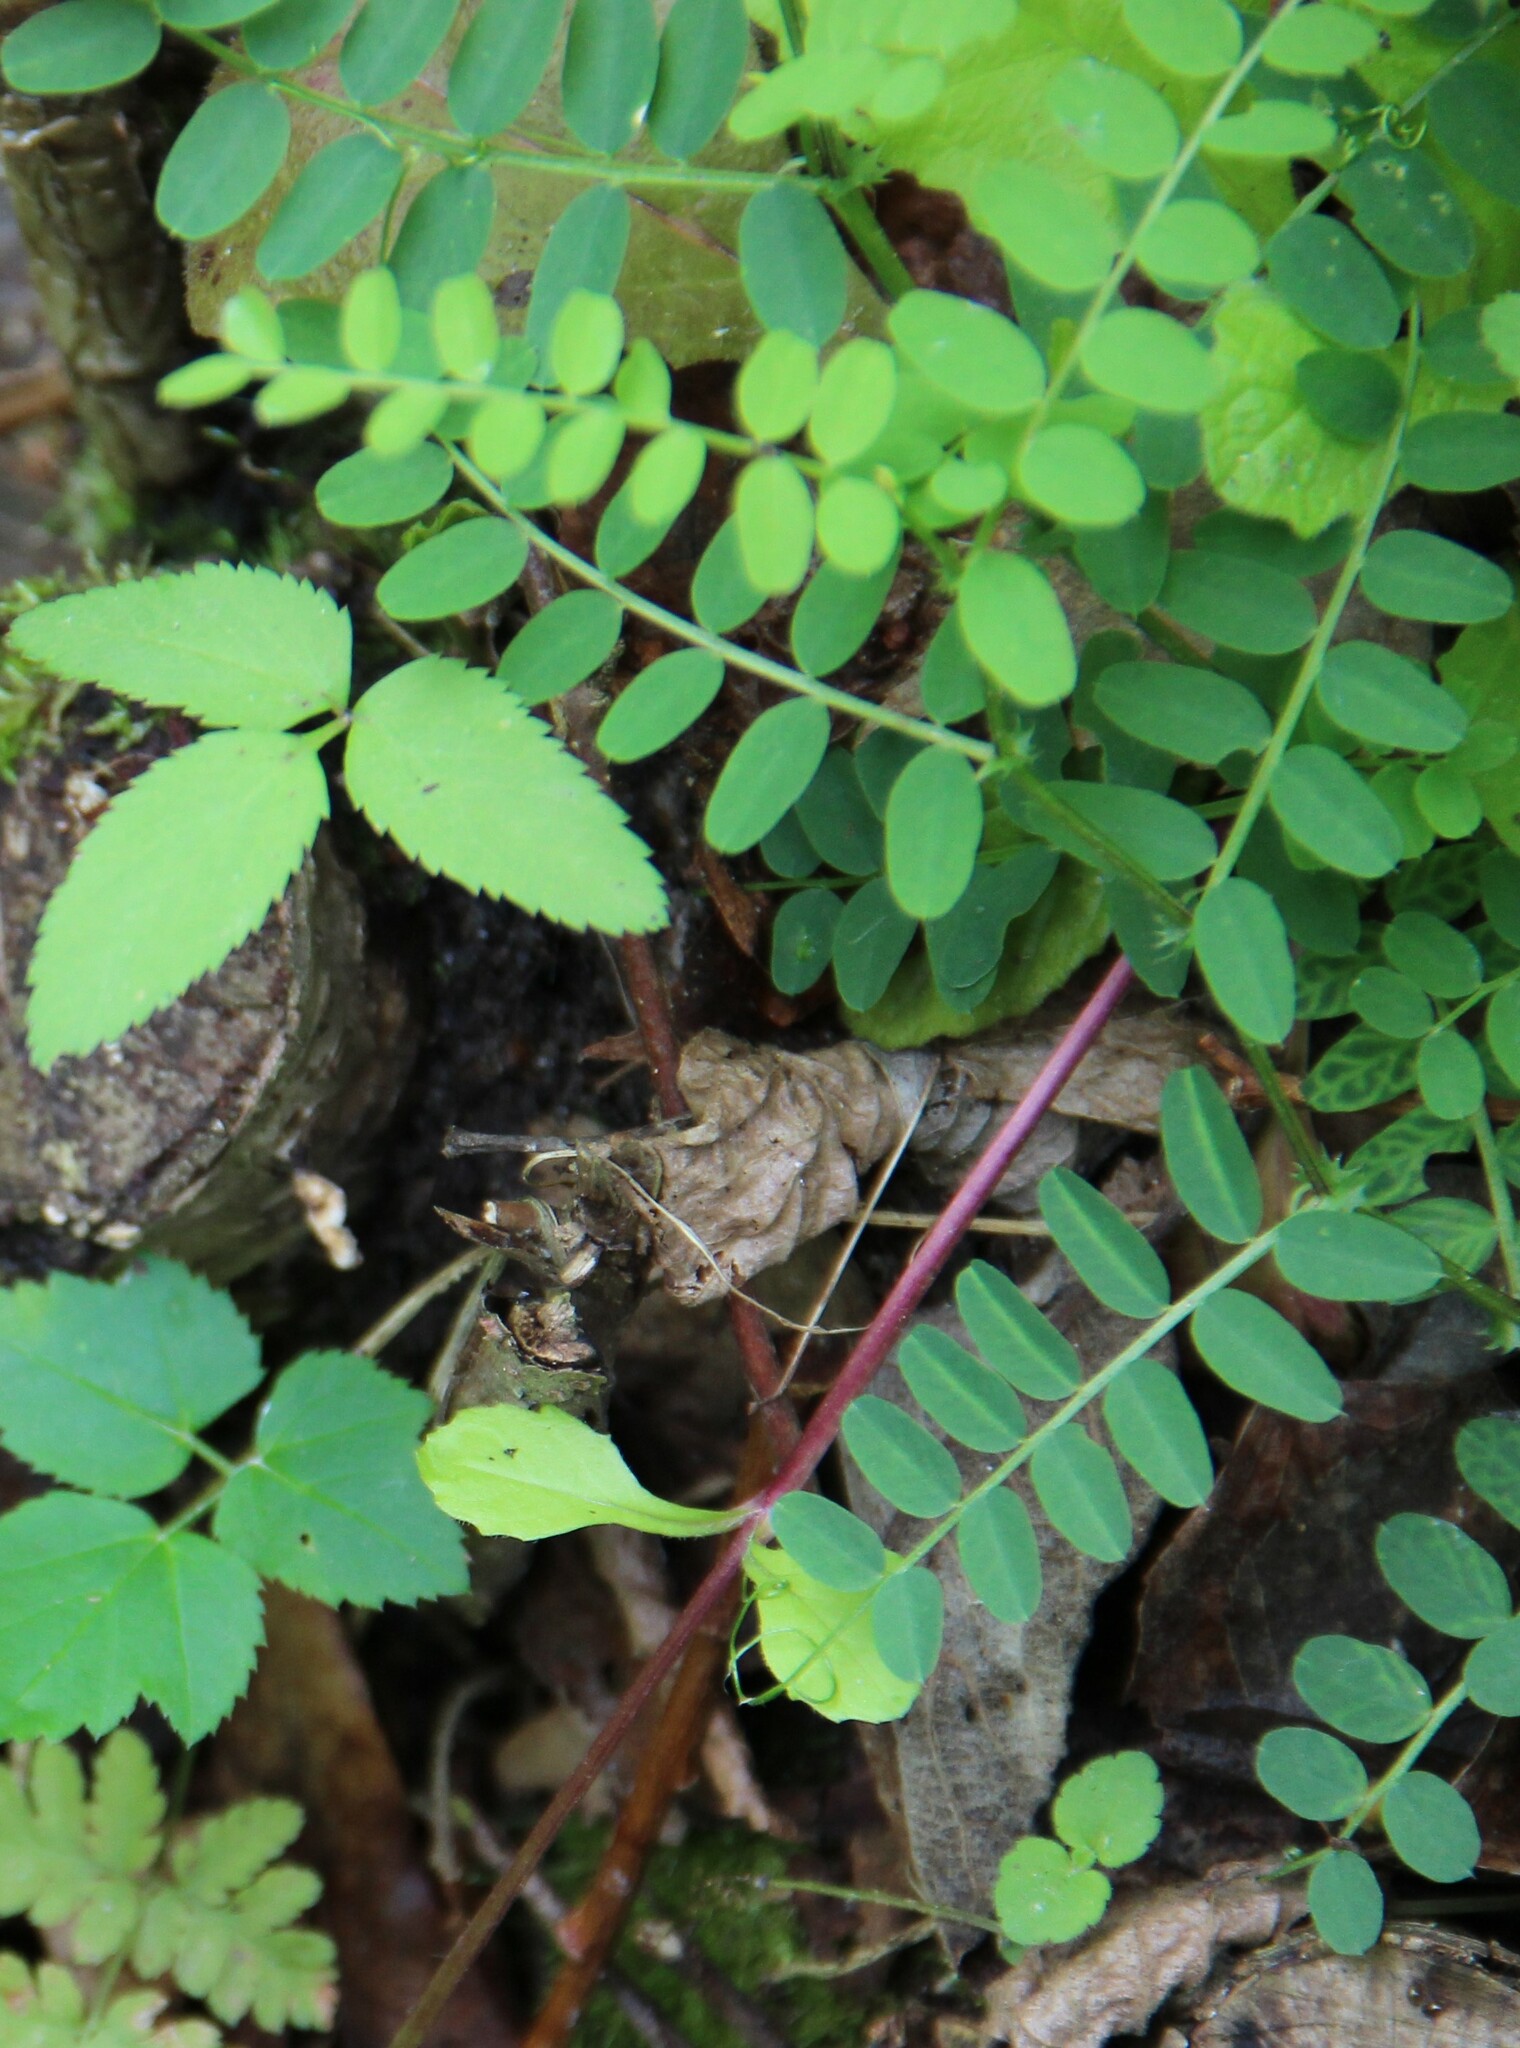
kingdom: Plantae
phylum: Tracheophyta
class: Magnoliopsida
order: Fabales
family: Fabaceae
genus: Vicia
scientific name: Vicia sylvatica
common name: Wood vetch
